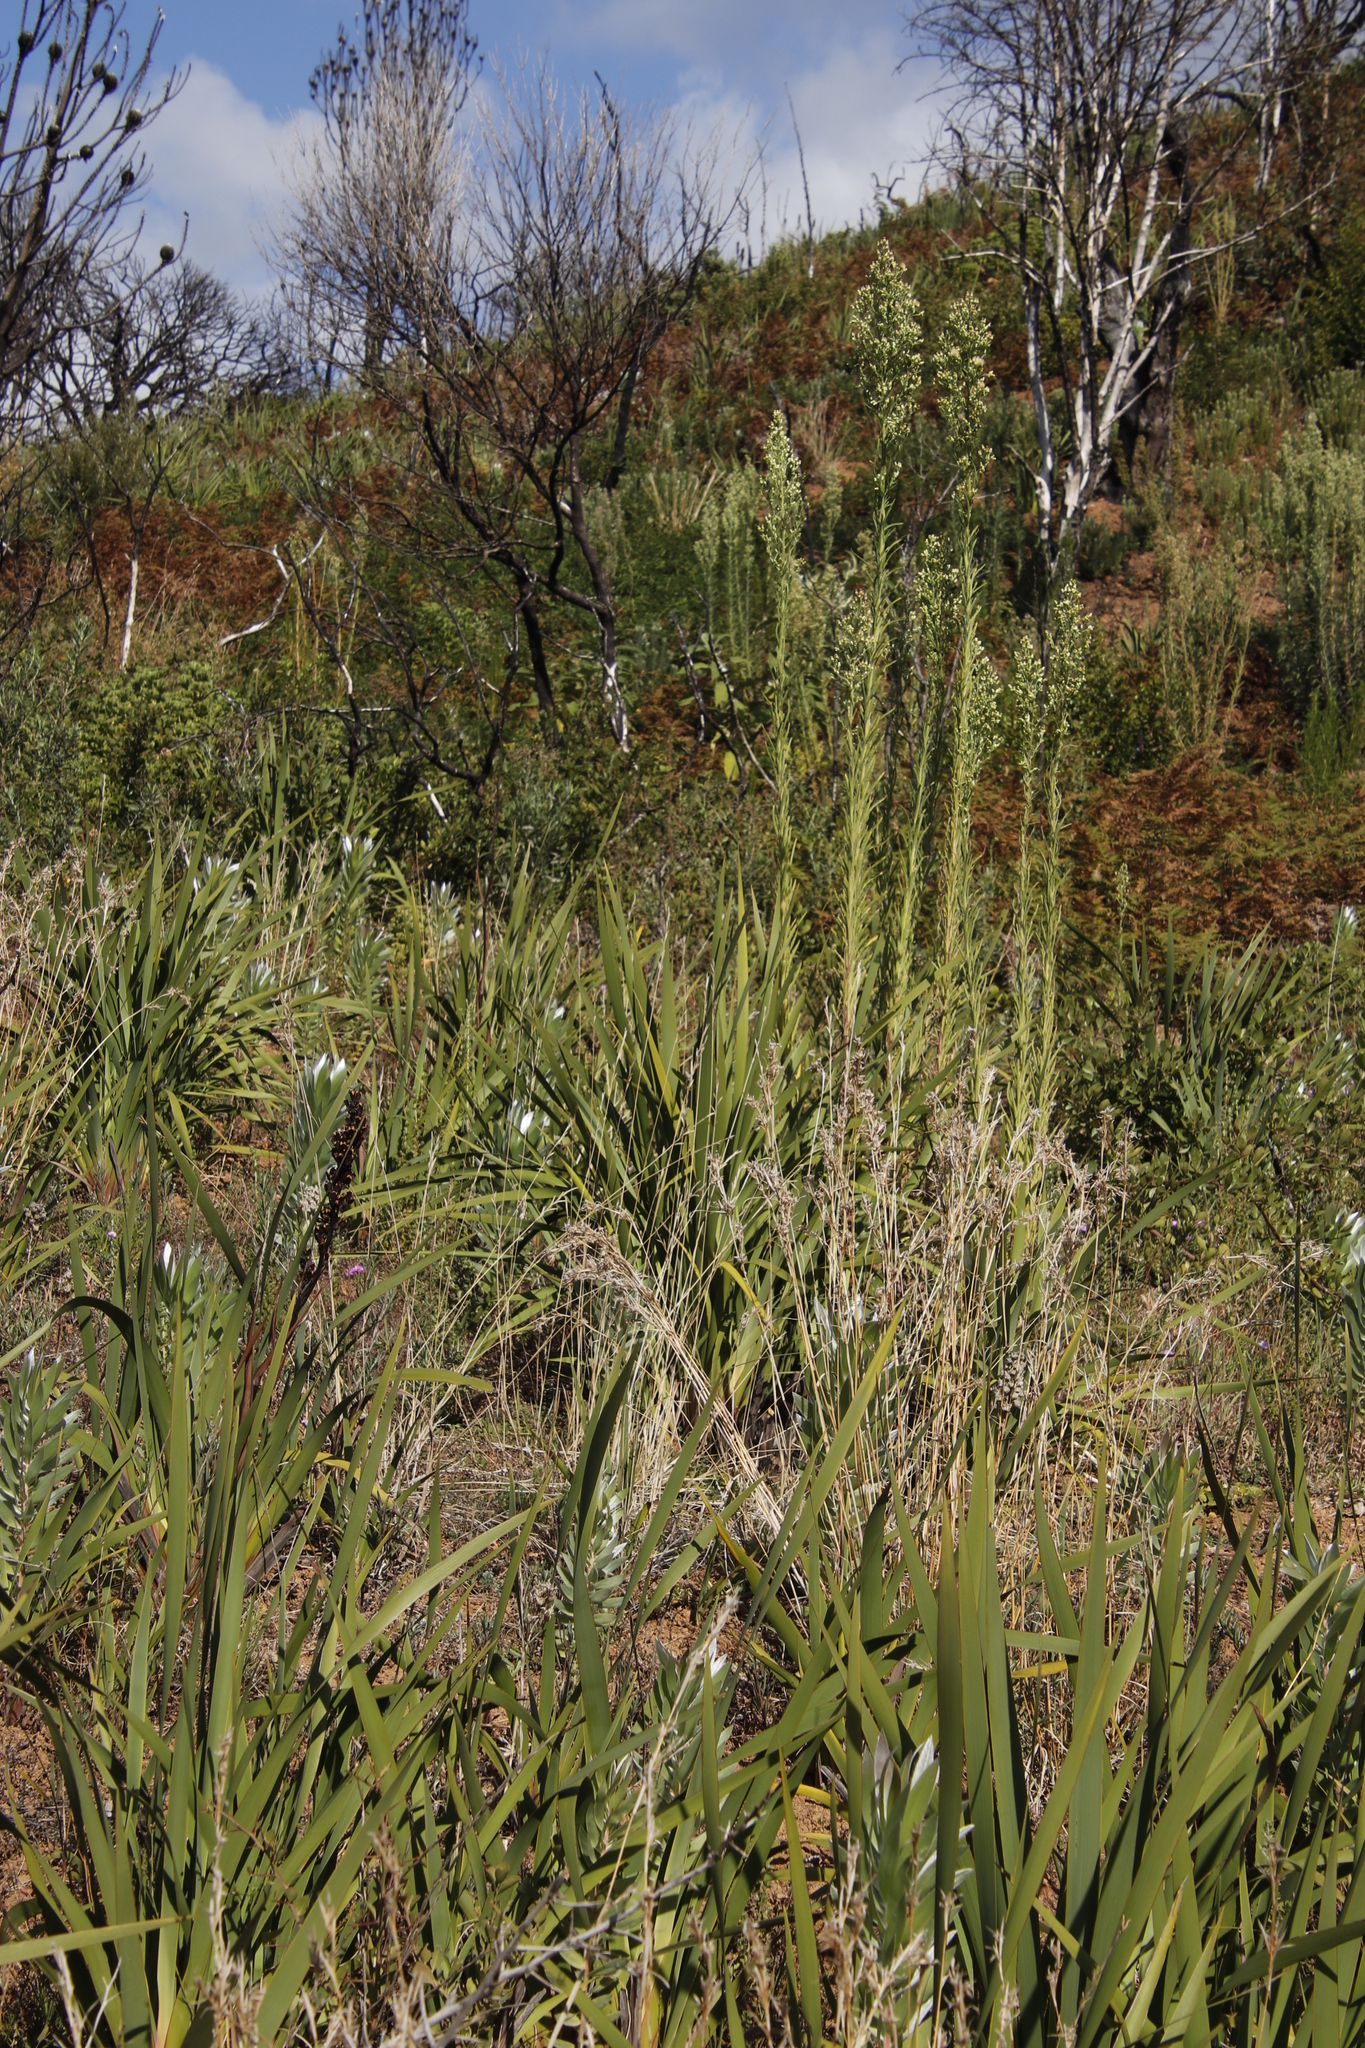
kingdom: Plantae
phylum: Tracheophyta
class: Magnoliopsida
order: Asterales
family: Asteraceae
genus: Erigeron
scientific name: Erigeron sumatrensis
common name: Daisy
